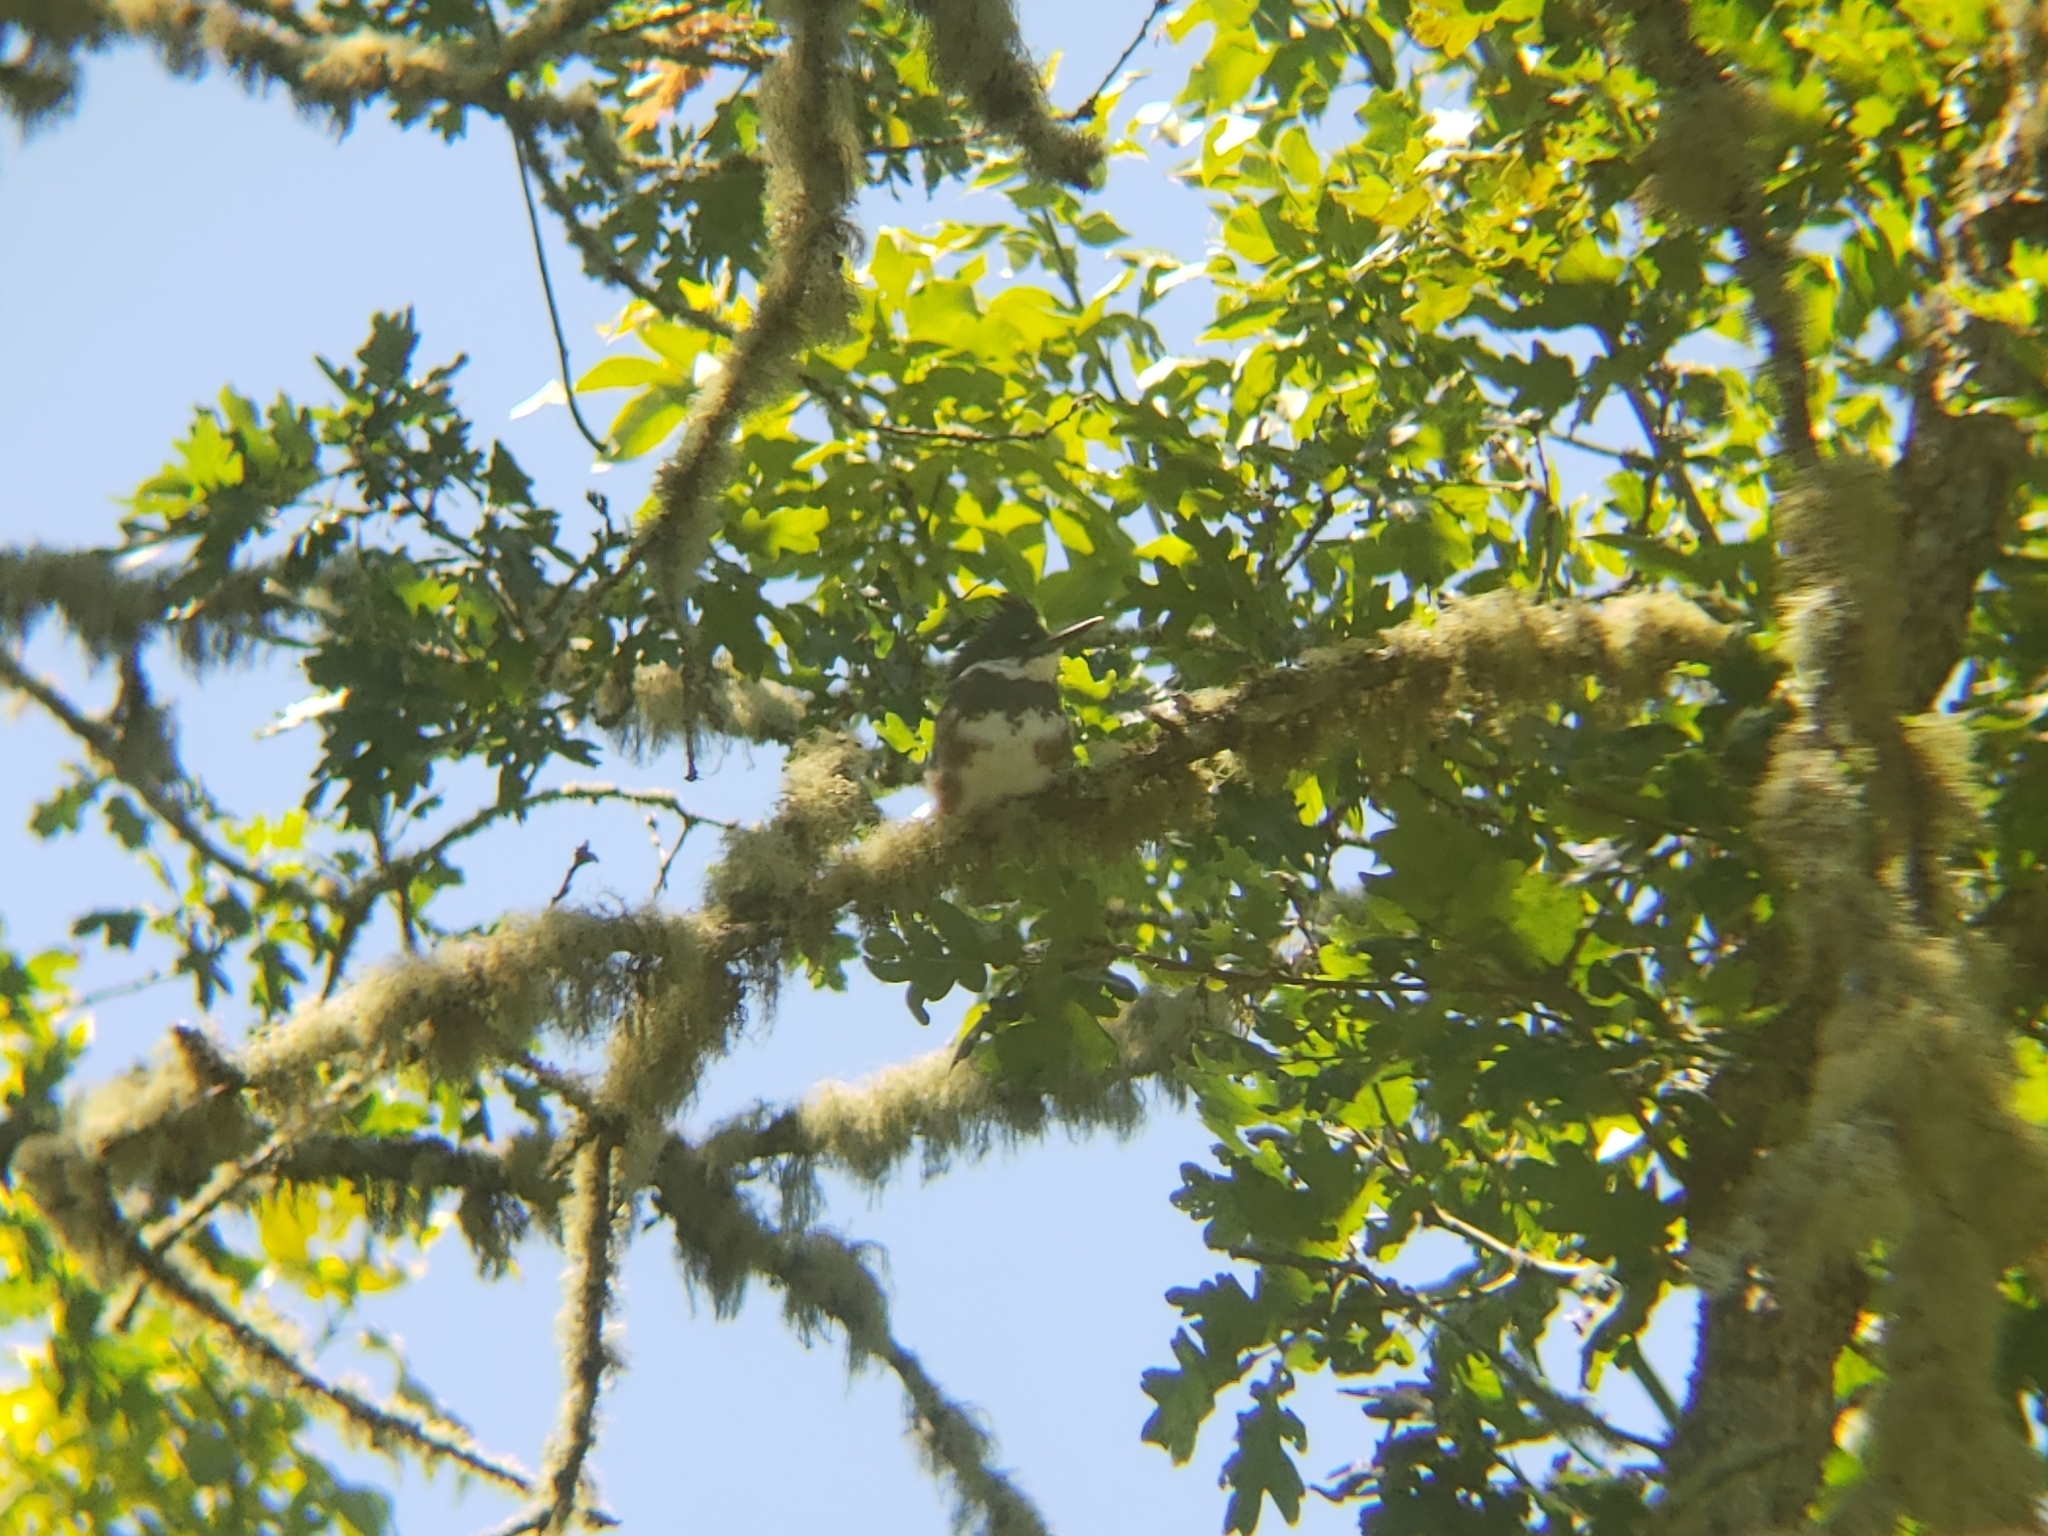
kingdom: Animalia
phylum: Chordata
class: Aves
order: Coraciiformes
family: Alcedinidae
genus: Megaceryle
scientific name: Megaceryle alcyon
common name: Belted kingfisher
